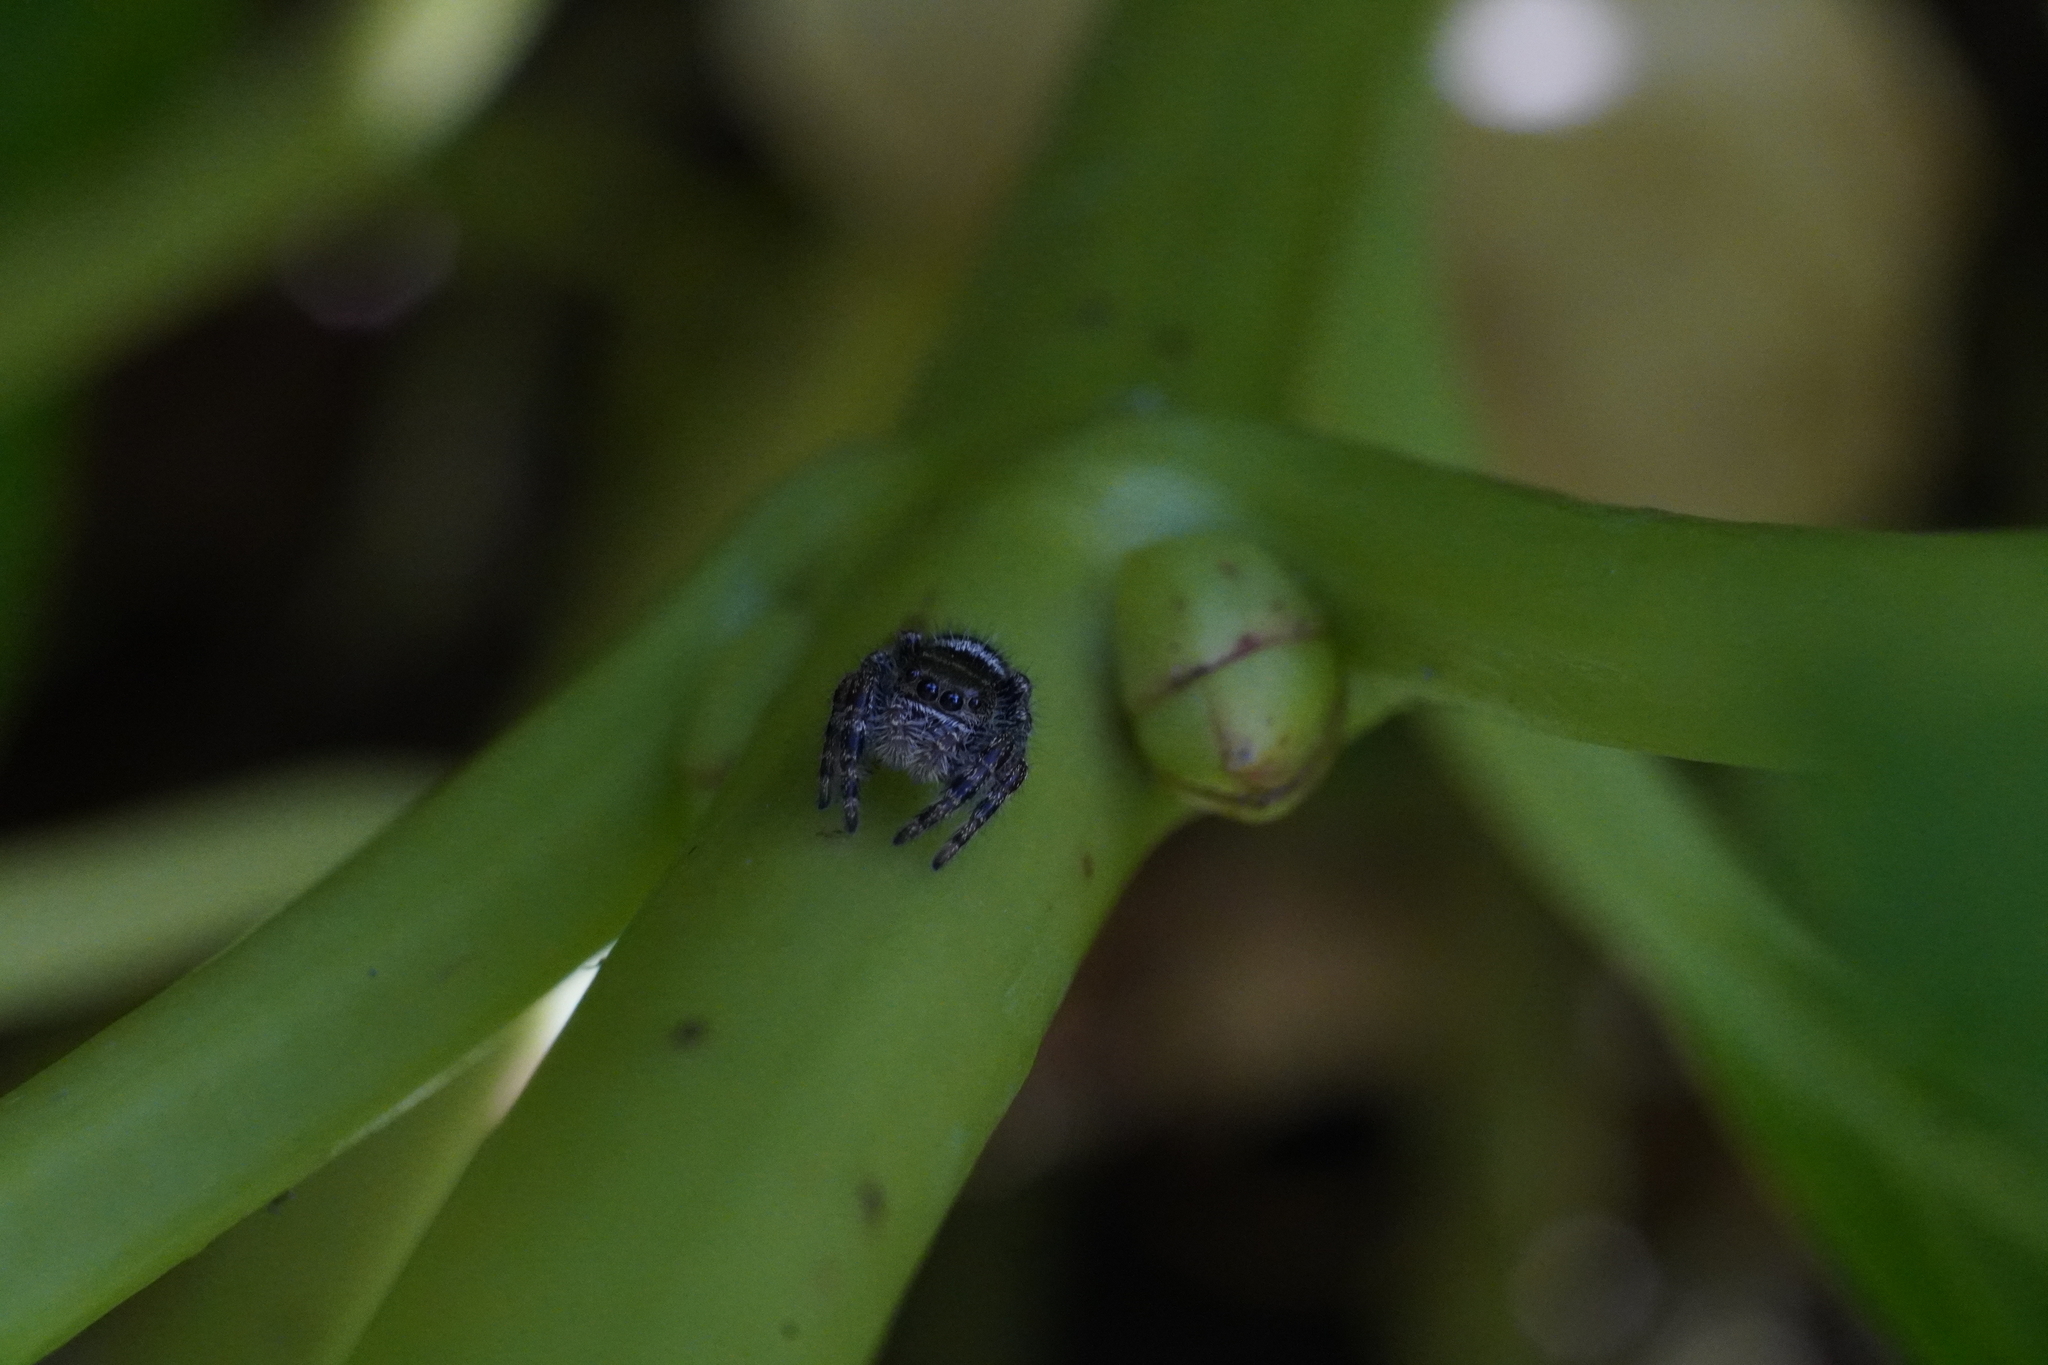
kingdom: Animalia
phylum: Arthropoda
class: Arachnida
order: Araneae
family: Salticidae
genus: Phidippus
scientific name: Phidippus audax
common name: Bold jumper
